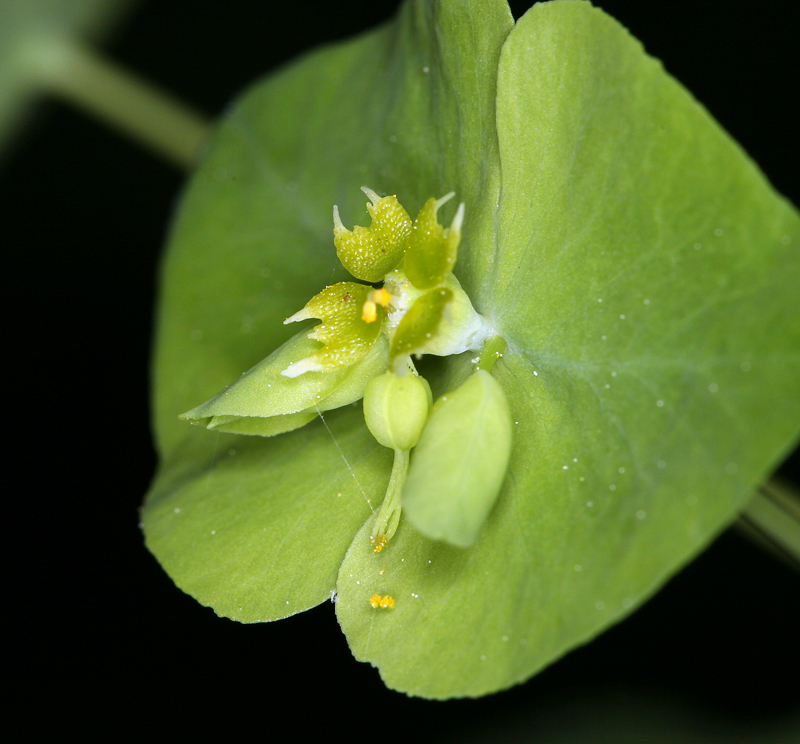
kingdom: Plantae
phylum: Tracheophyta
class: Magnoliopsida
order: Malpighiales
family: Euphorbiaceae
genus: Euphorbia
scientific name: Euphorbia crenulata
